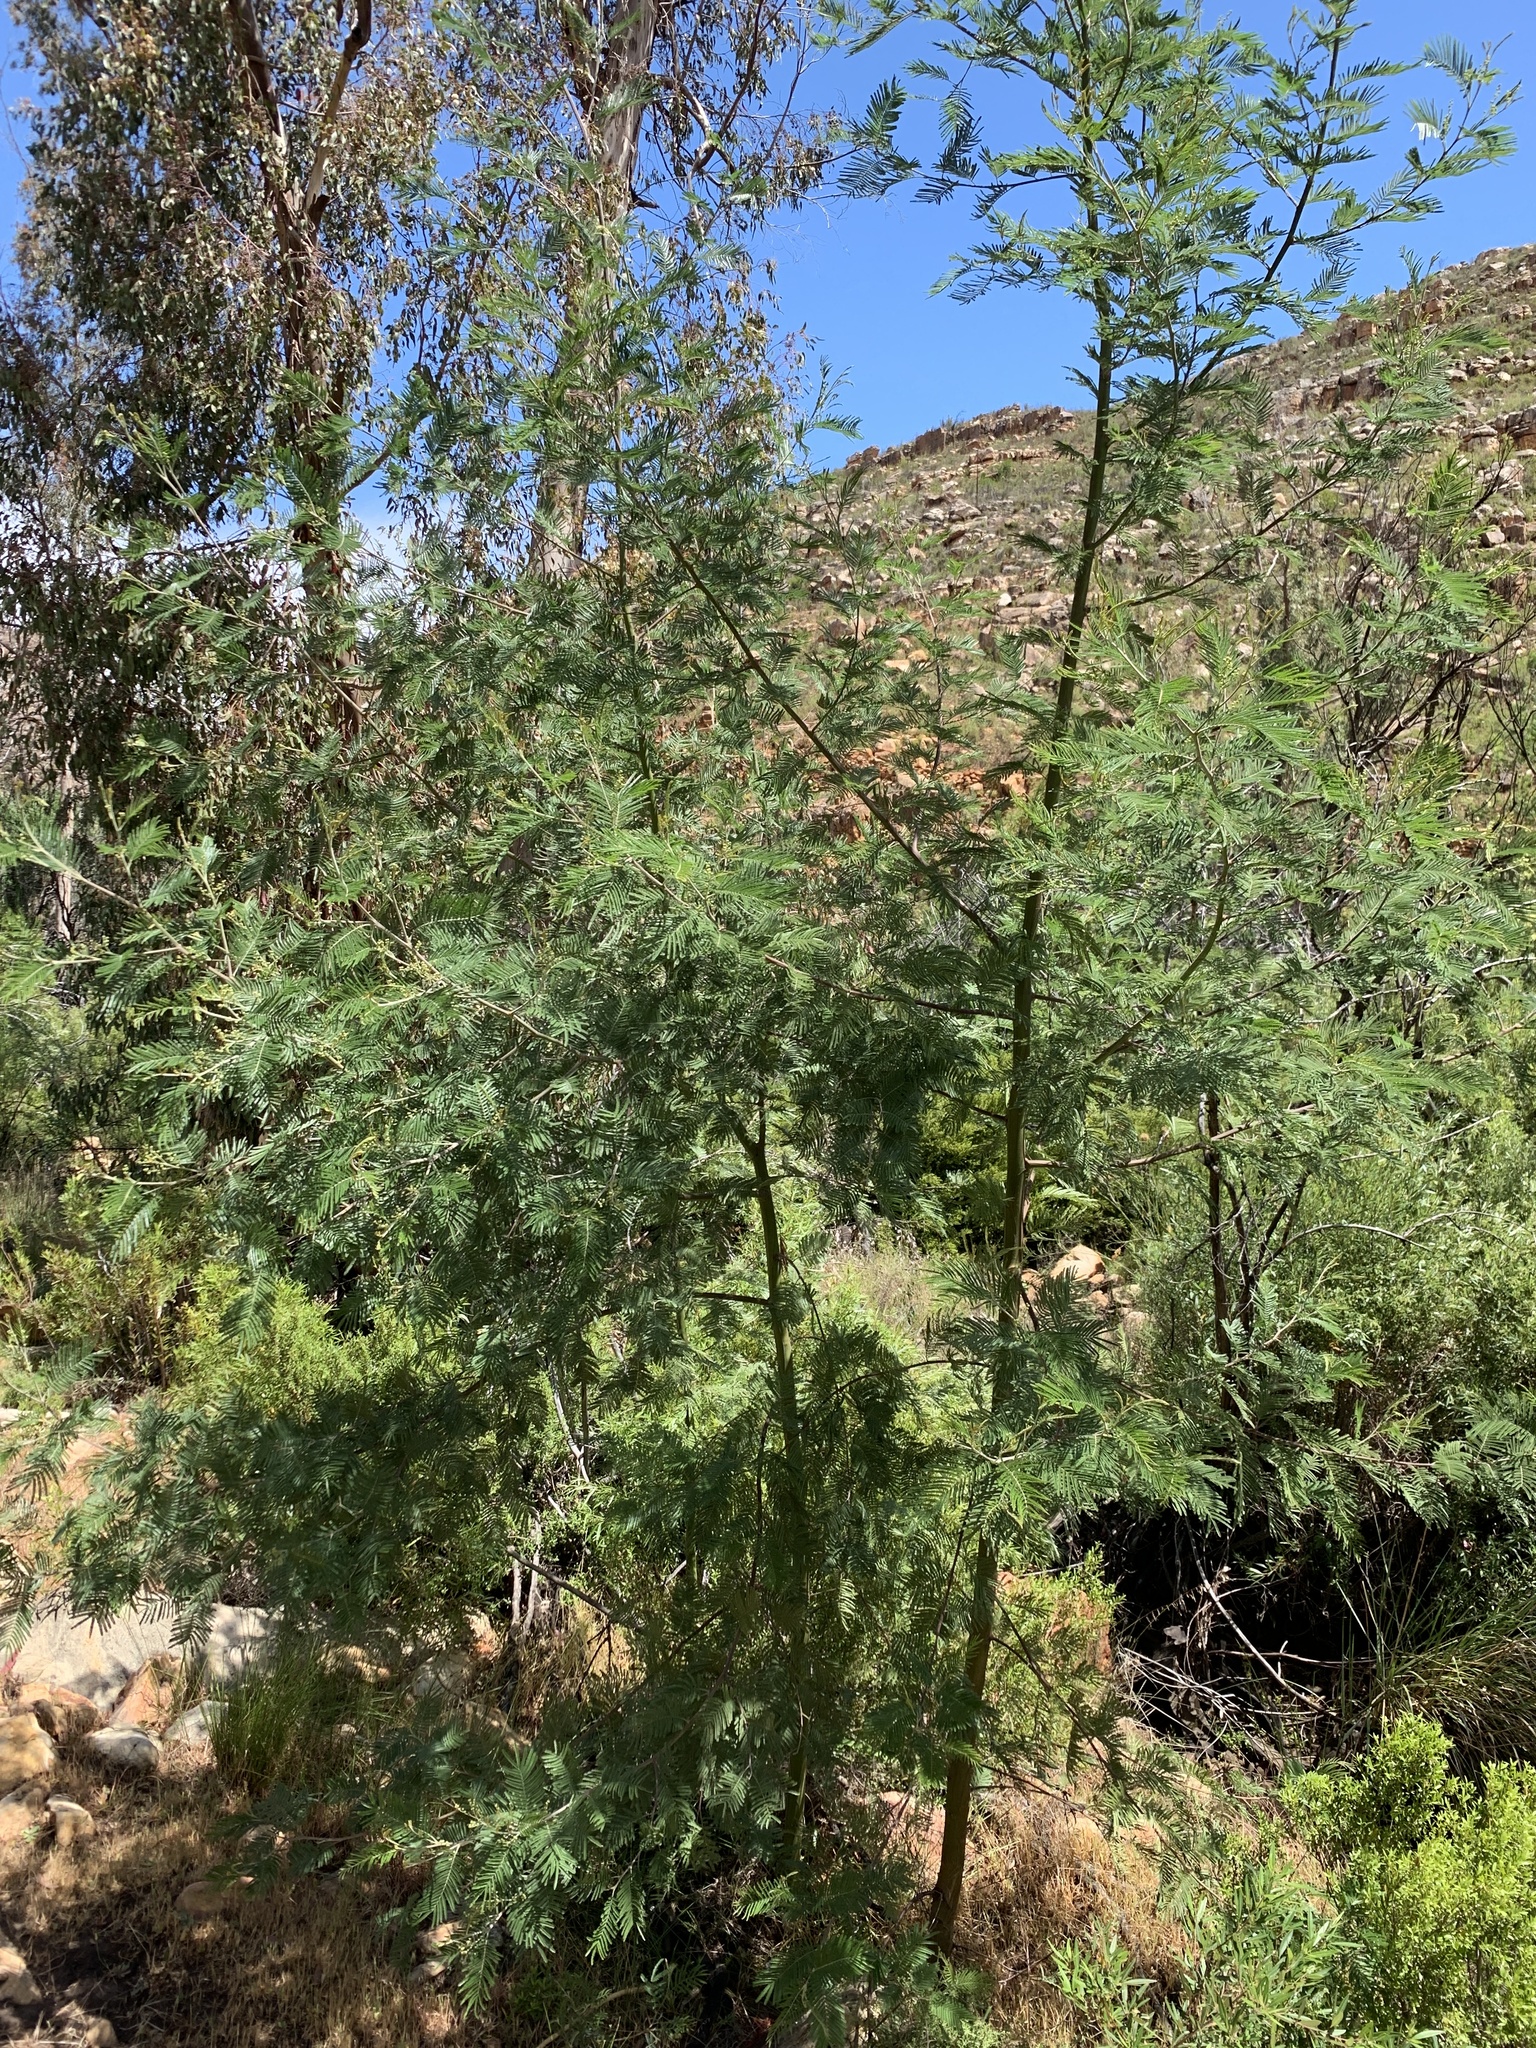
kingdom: Plantae
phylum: Tracheophyta
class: Magnoliopsida
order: Fabales
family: Fabaceae
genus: Acacia
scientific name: Acacia mearnsii
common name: Black wattle
